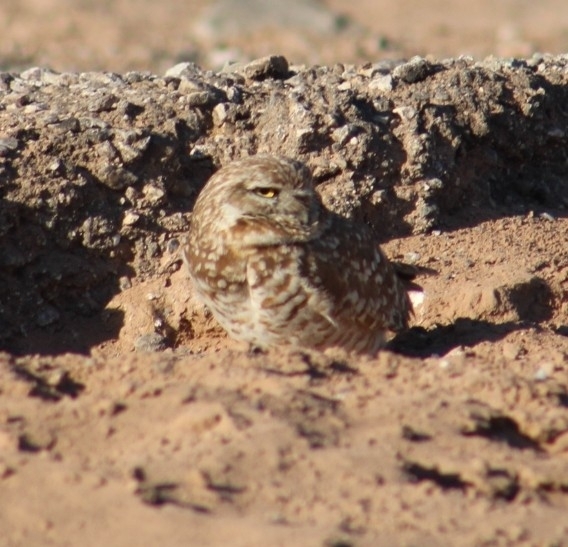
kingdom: Animalia
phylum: Chordata
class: Aves
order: Strigiformes
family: Strigidae
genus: Athene
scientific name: Athene cunicularia
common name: Burrowing owl
